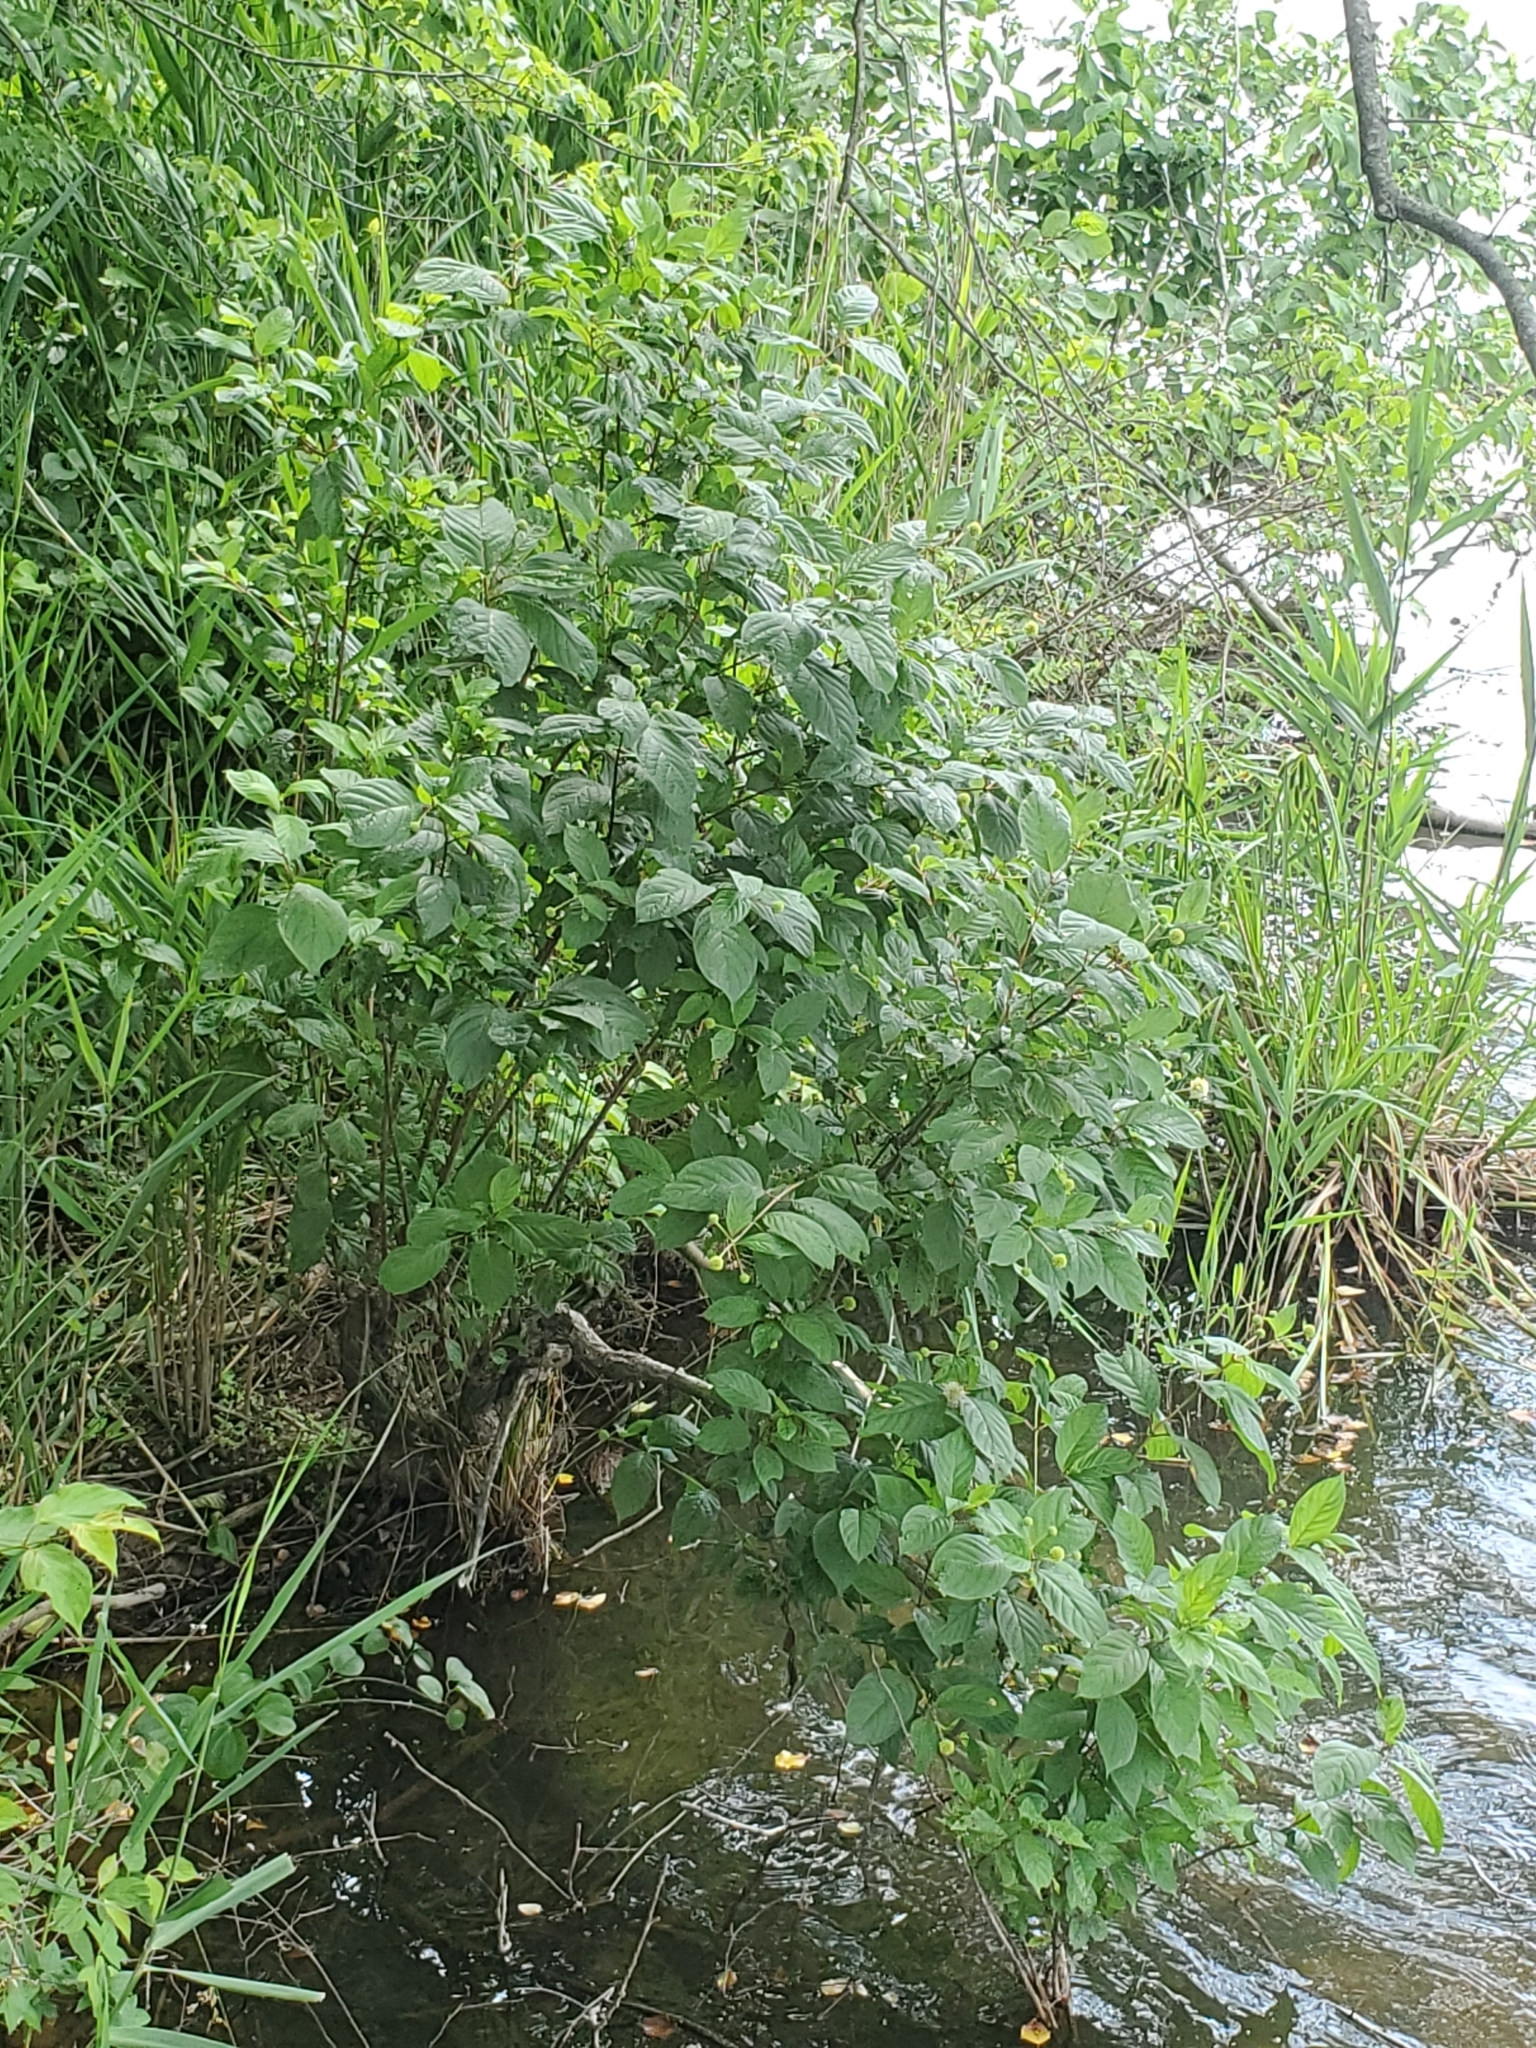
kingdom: Plantae
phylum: Tracheophyta
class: Magnoliopsida
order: Gentianales
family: Rubiaceae
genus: Cephalanthus
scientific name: Cephalanthus occidentalis
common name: Button-willow
